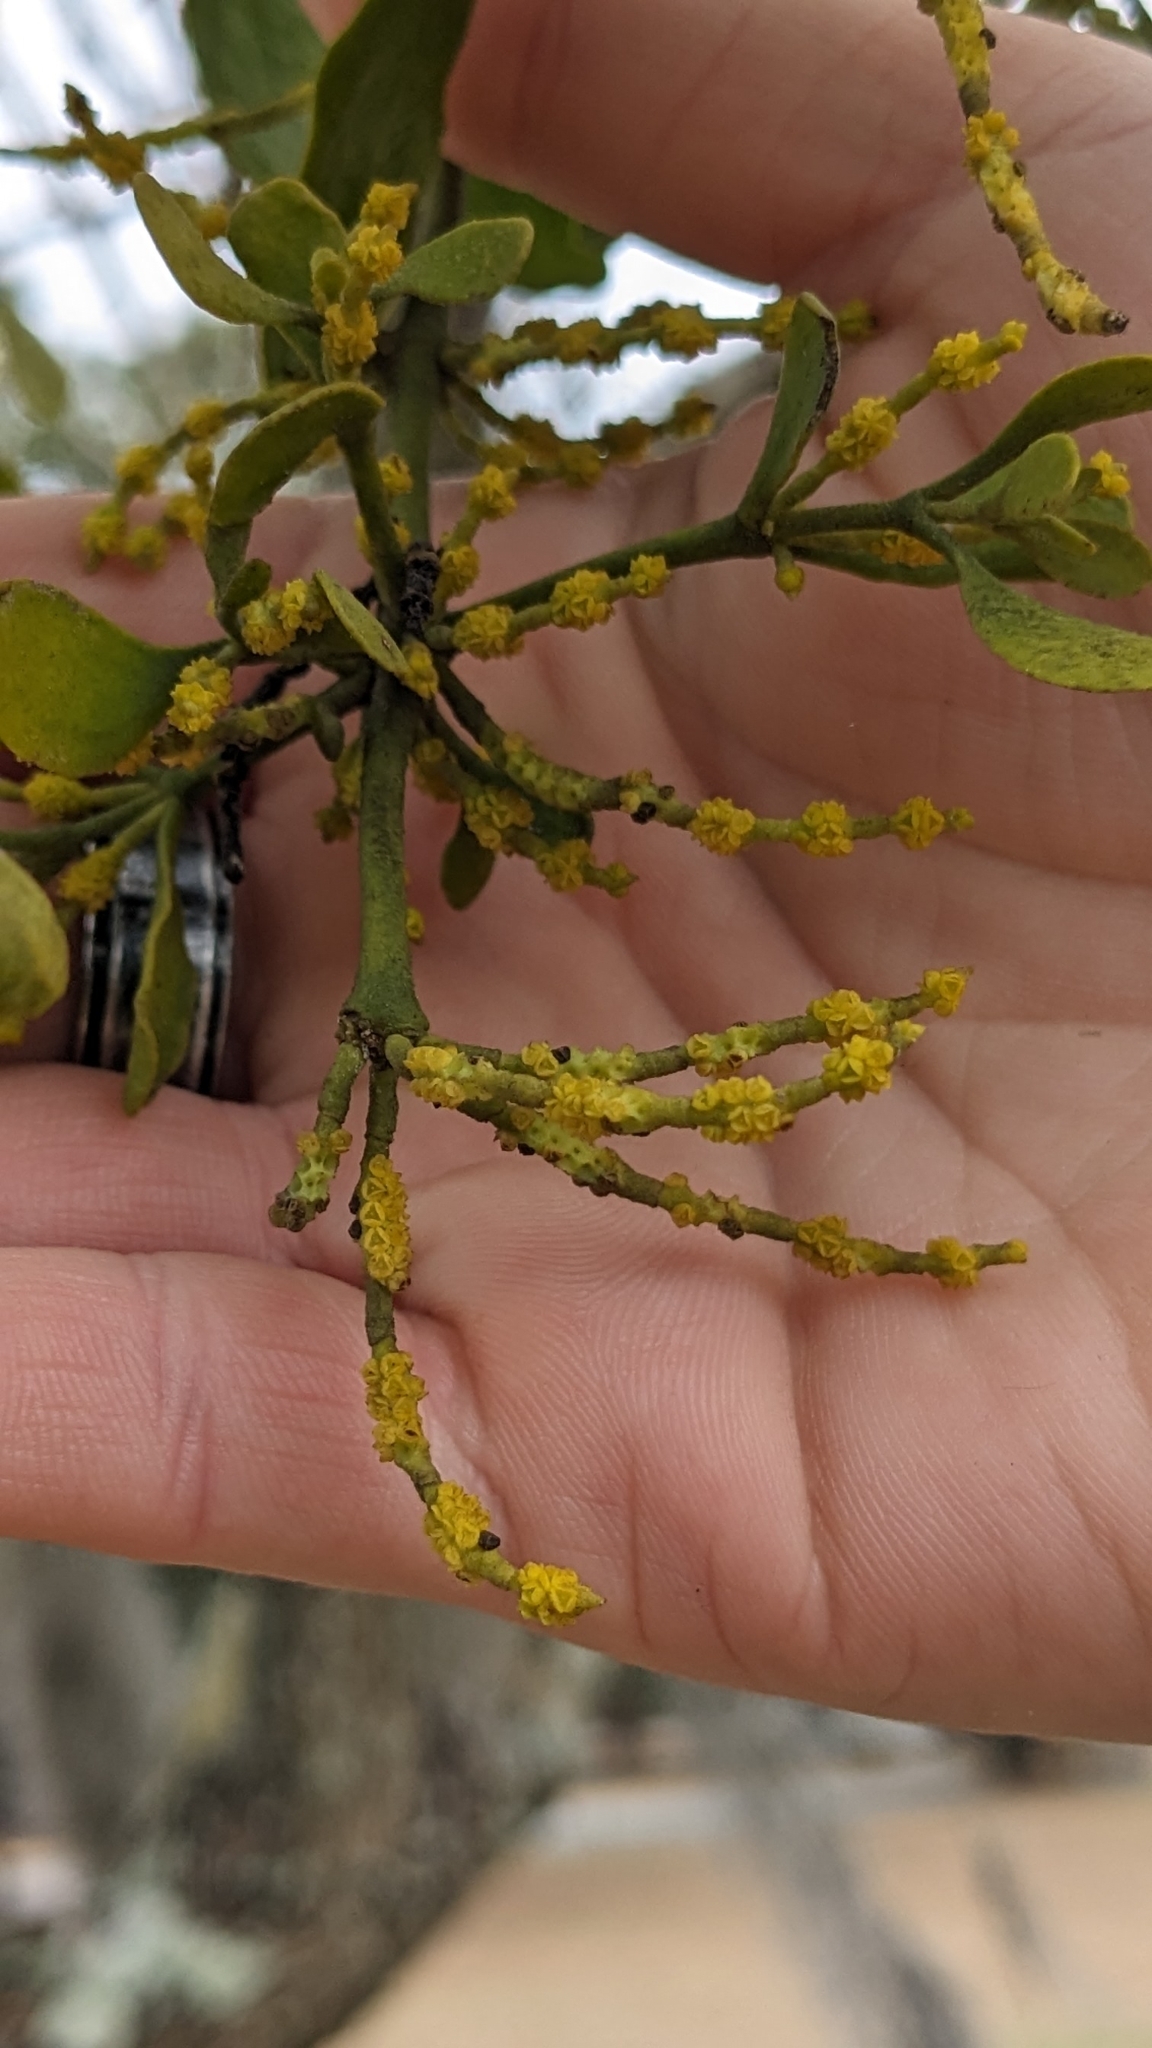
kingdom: Plantae
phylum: Tracheophyta
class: Magnoliopsida
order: Santalales
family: Viscaceae
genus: Phoradendron
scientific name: Phoradendron leucarpum
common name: Pacific mistletoe
